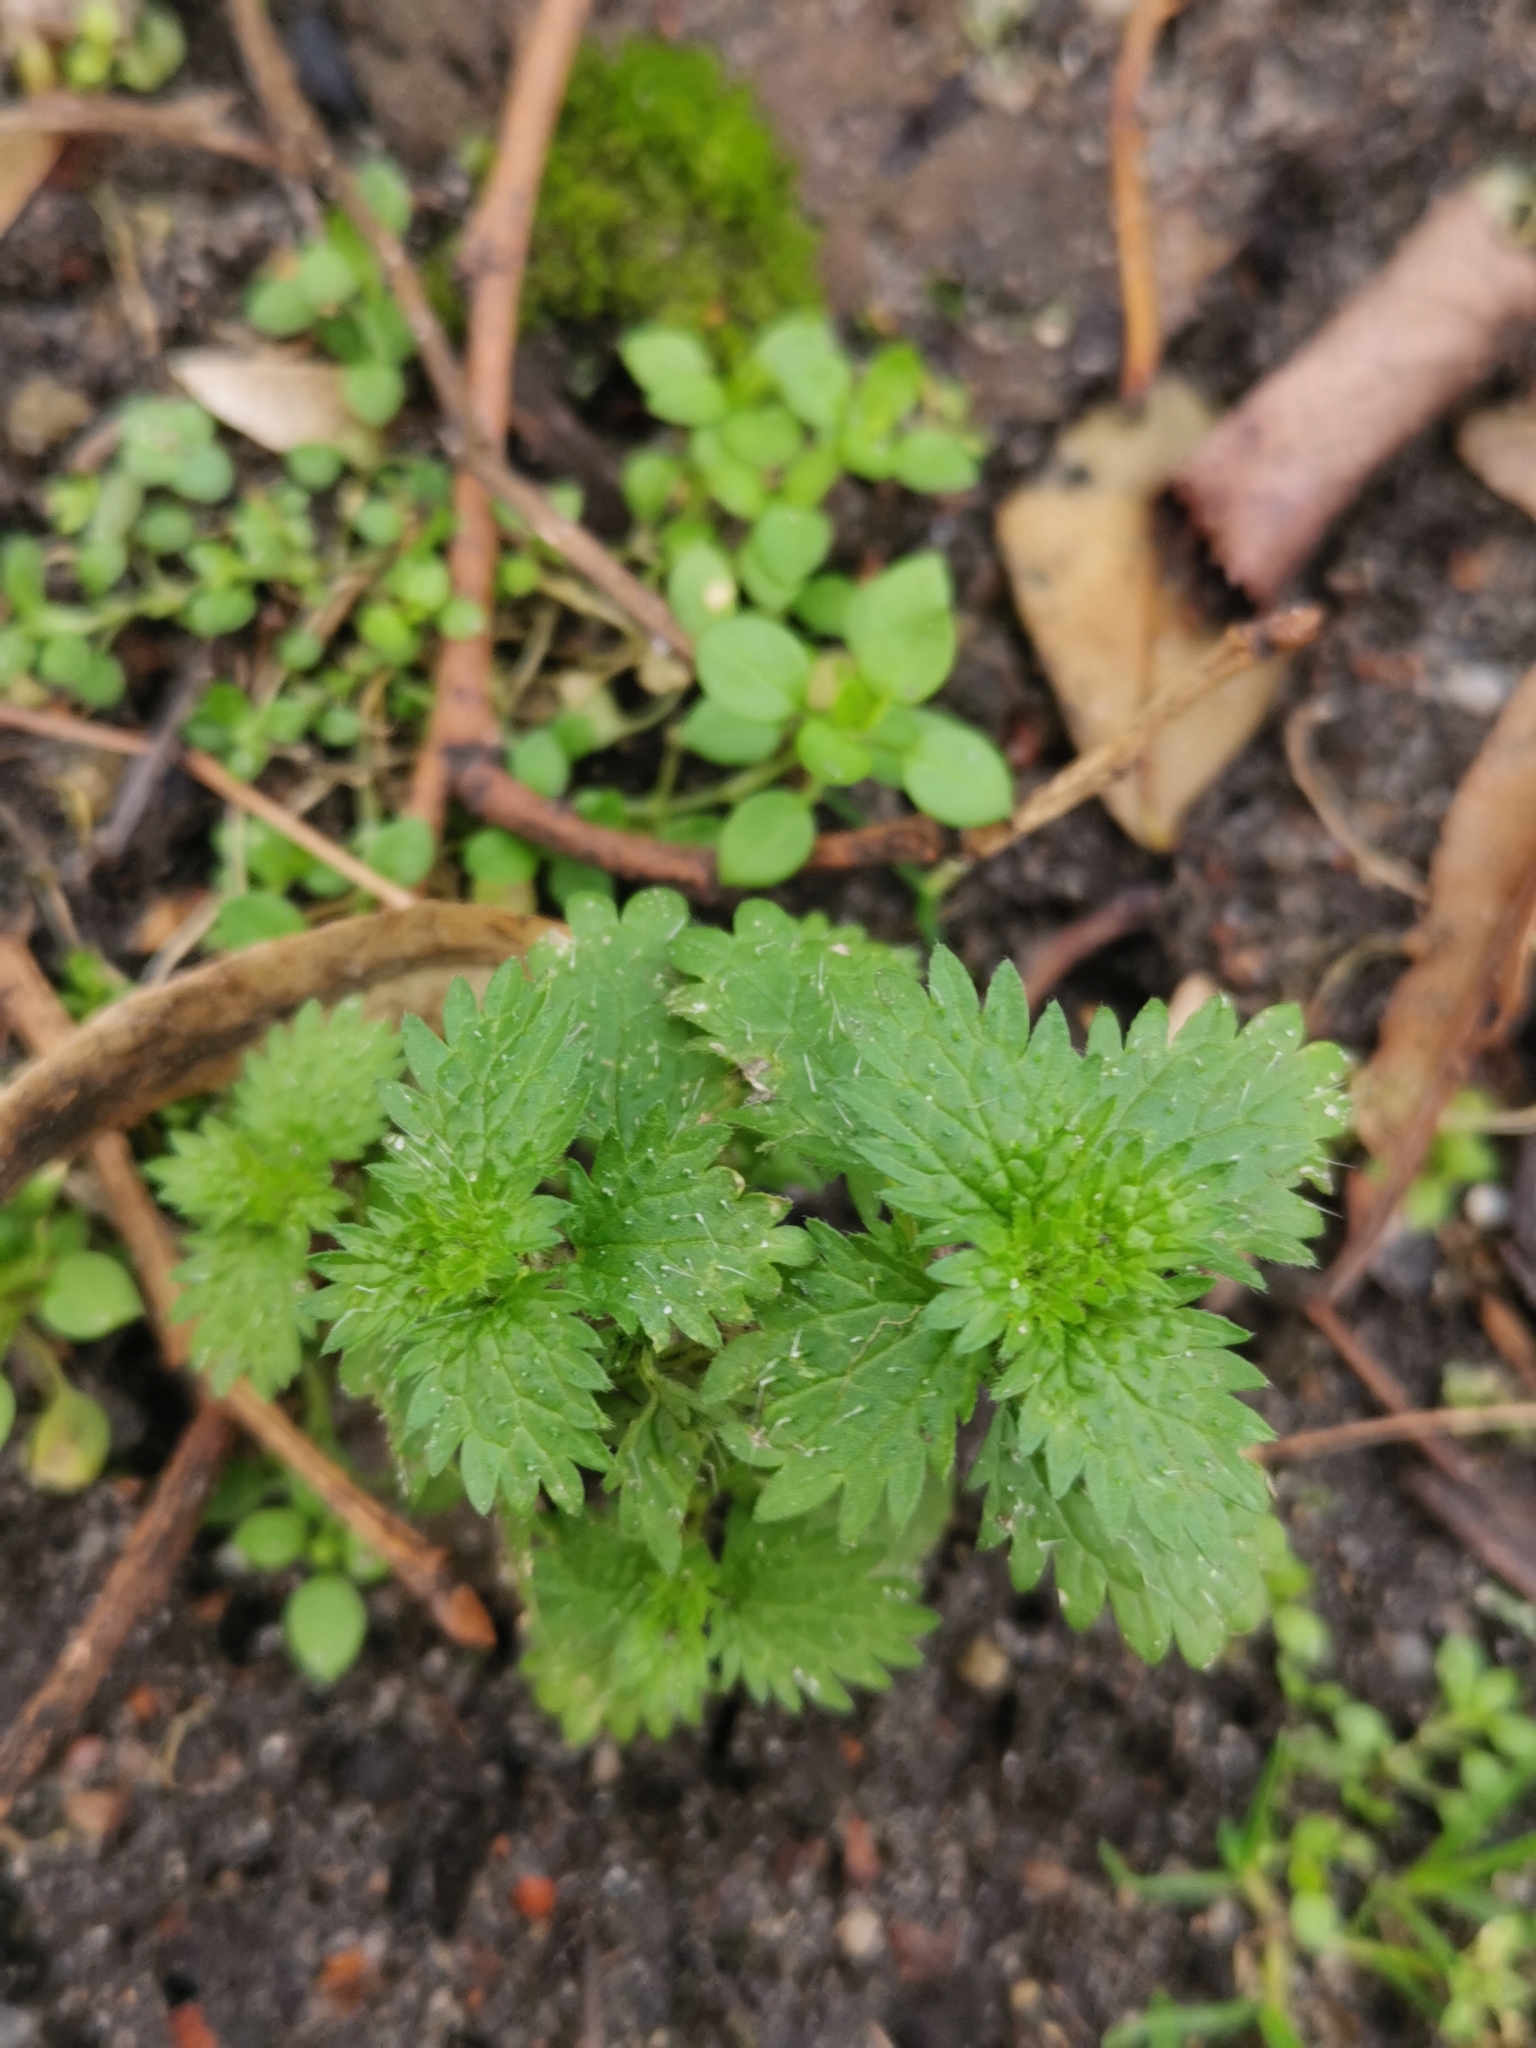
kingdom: Plantae
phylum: Tracheophyta
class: Magnoliopsida
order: Rosales
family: Urticaceae
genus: Urtica
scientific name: Urtica urens
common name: Dwarf nettle
